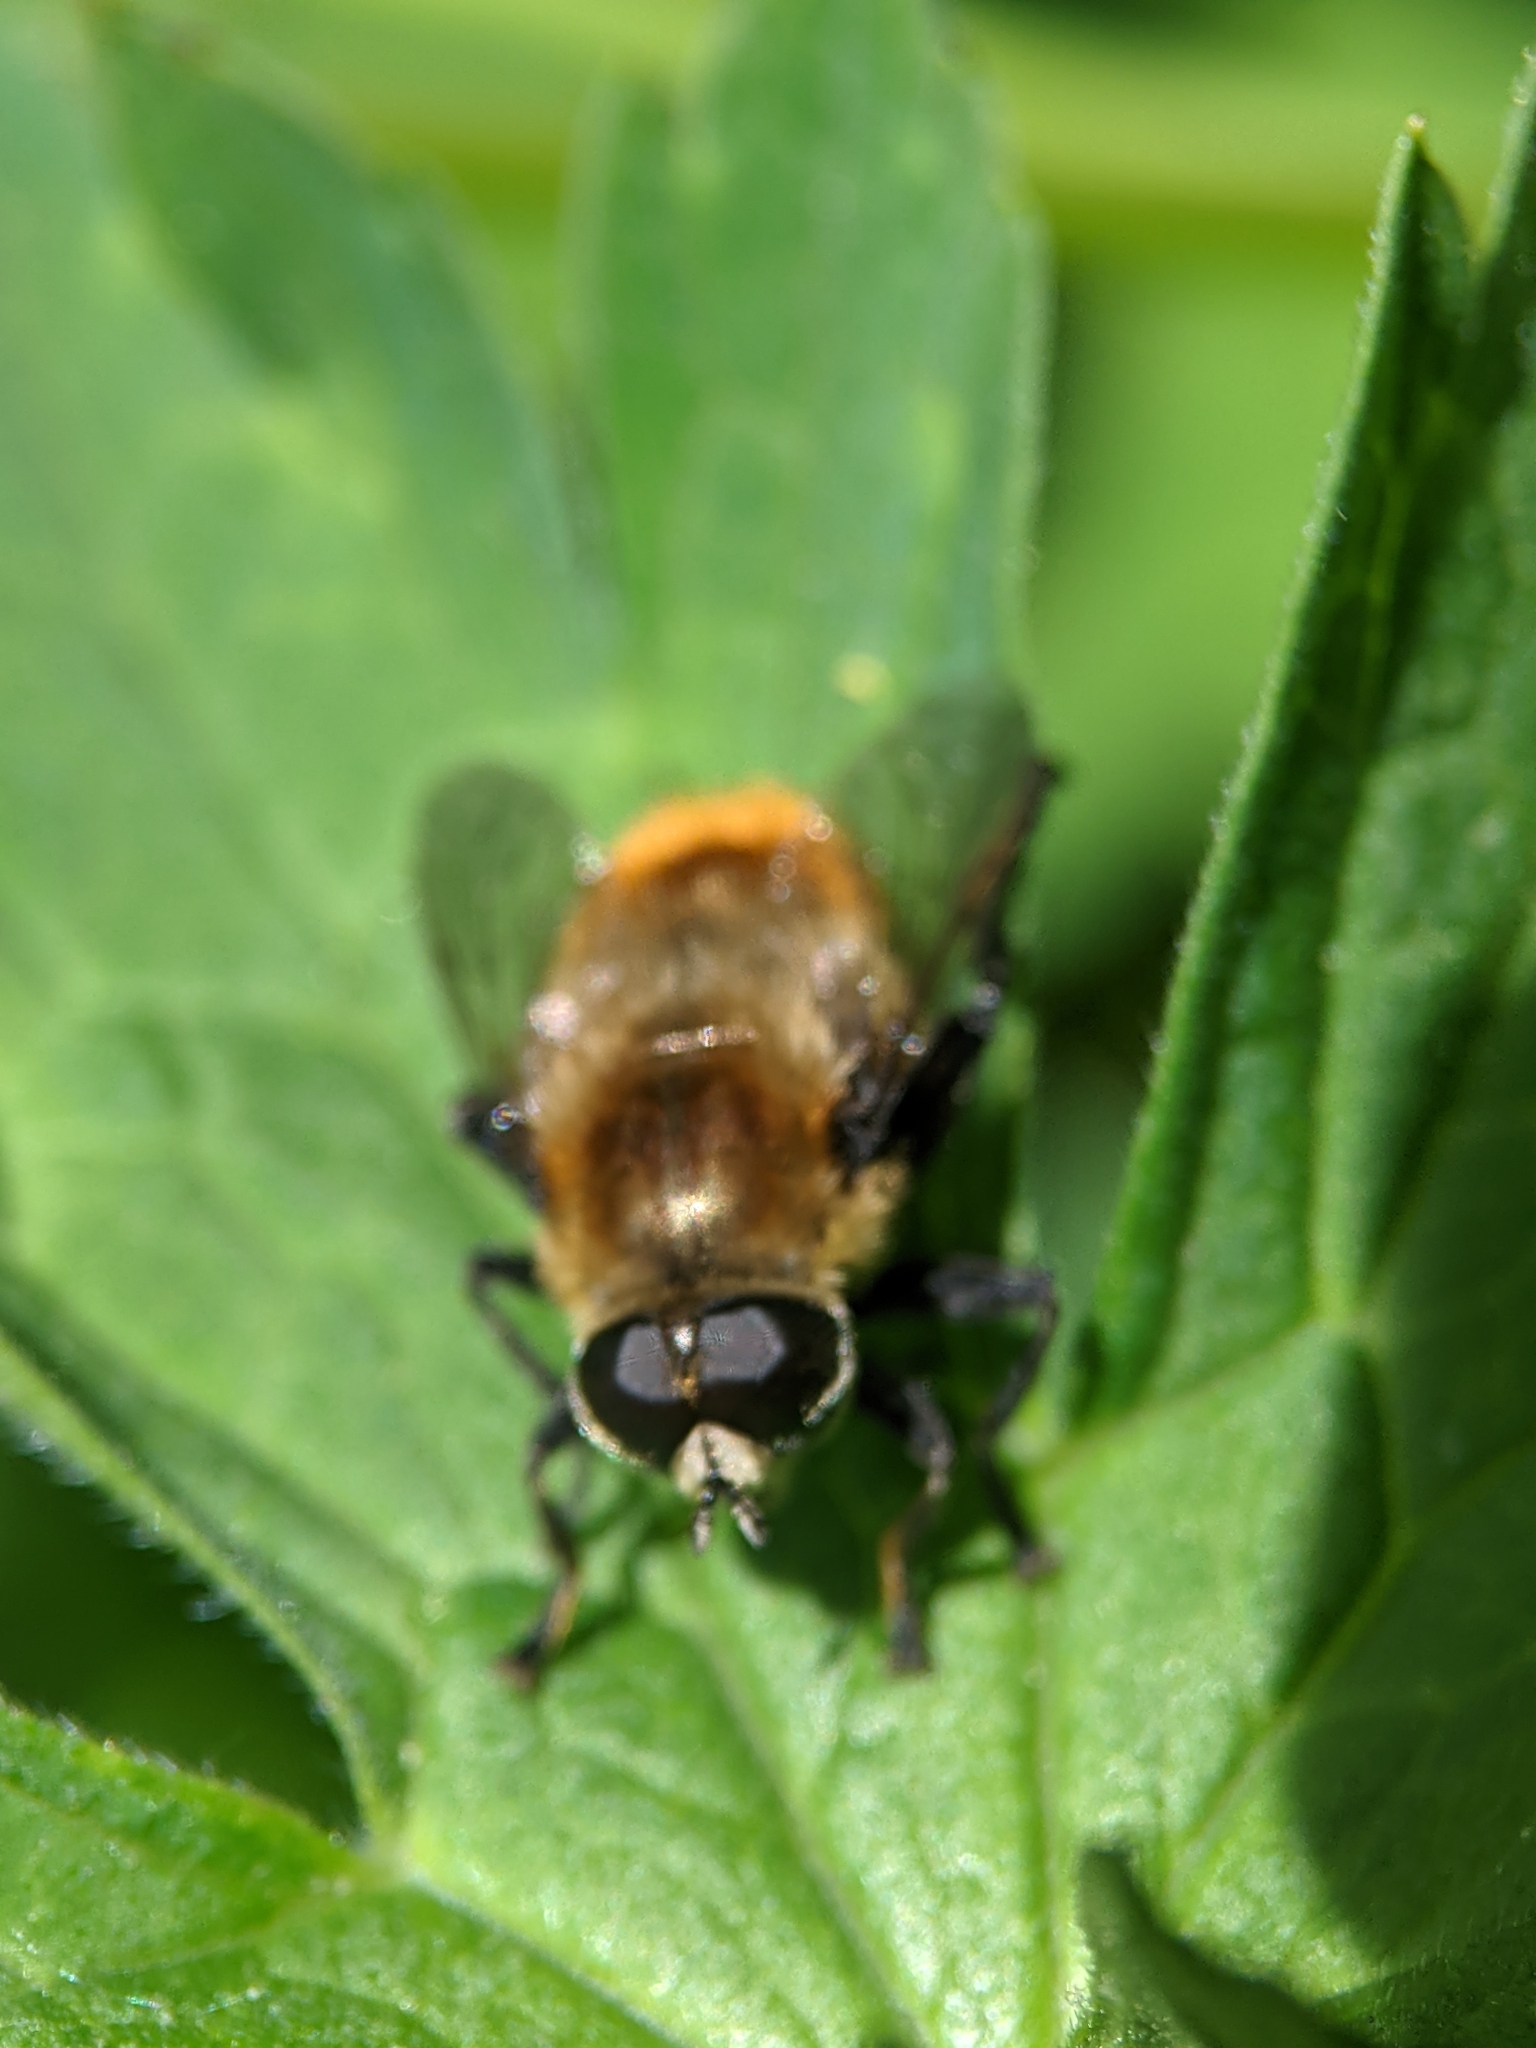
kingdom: Animalia
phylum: Arthropoda
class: Insecta
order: Diptera
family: Syrphidae
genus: Merodon
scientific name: Merodon equestris
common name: Greater bulb-fly
